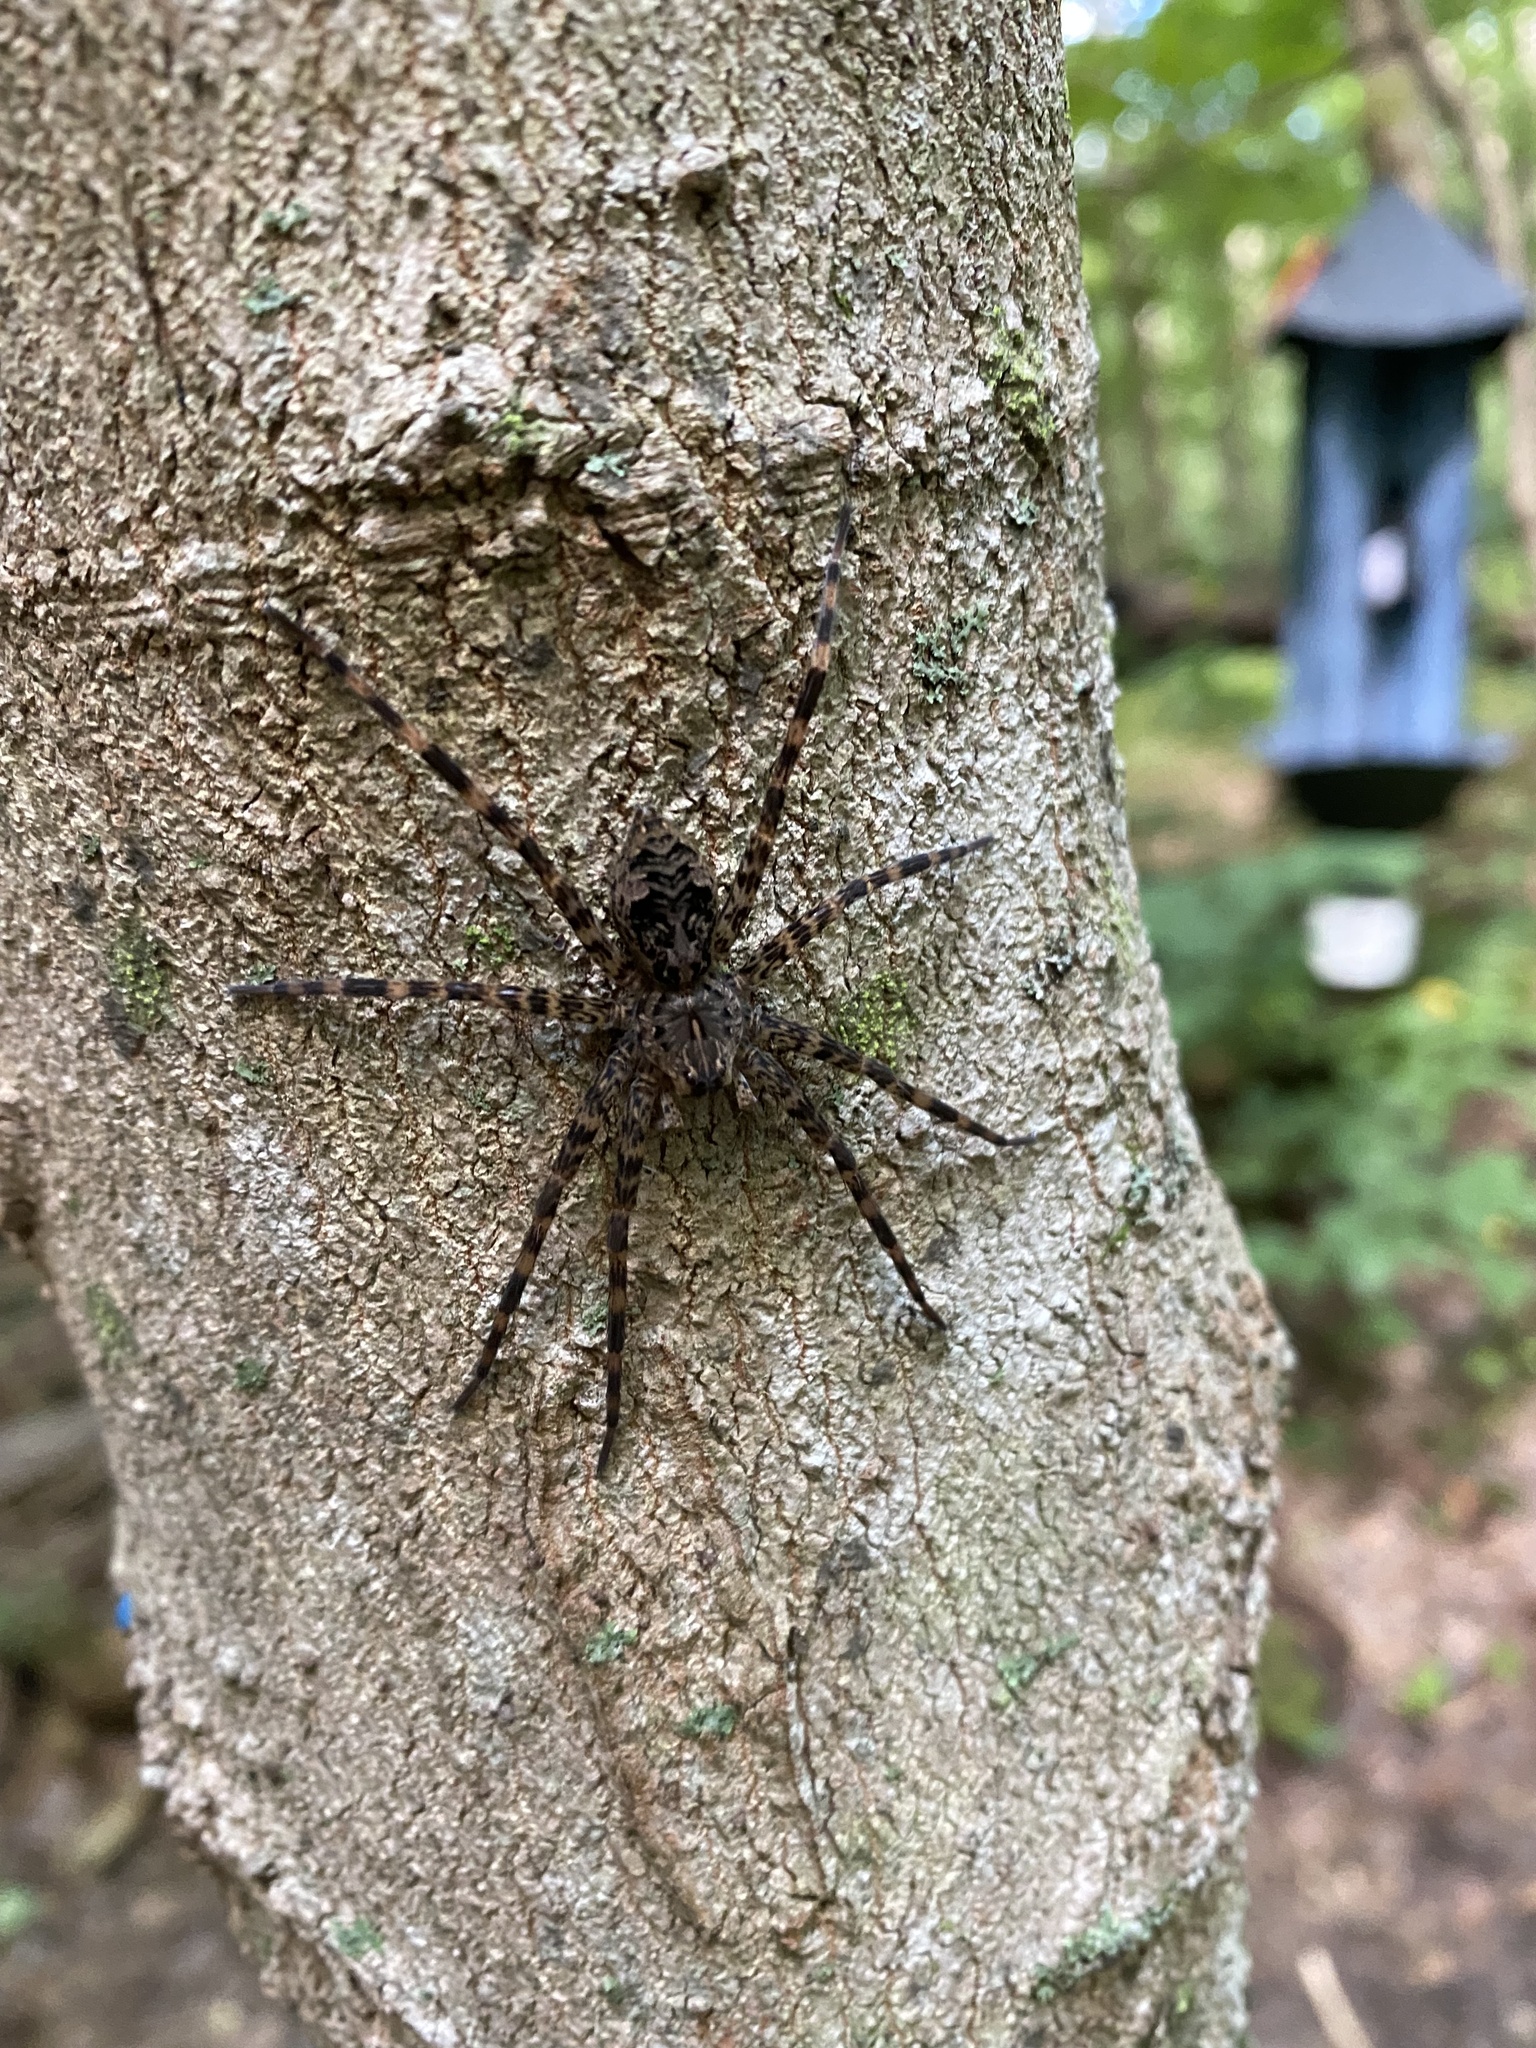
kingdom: Animalia
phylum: Arthropoda
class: Arachnida
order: Araneae
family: Pisauridae
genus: Dolomedes
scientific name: Dolomedes tenebrosus
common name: Dark fishing spider
